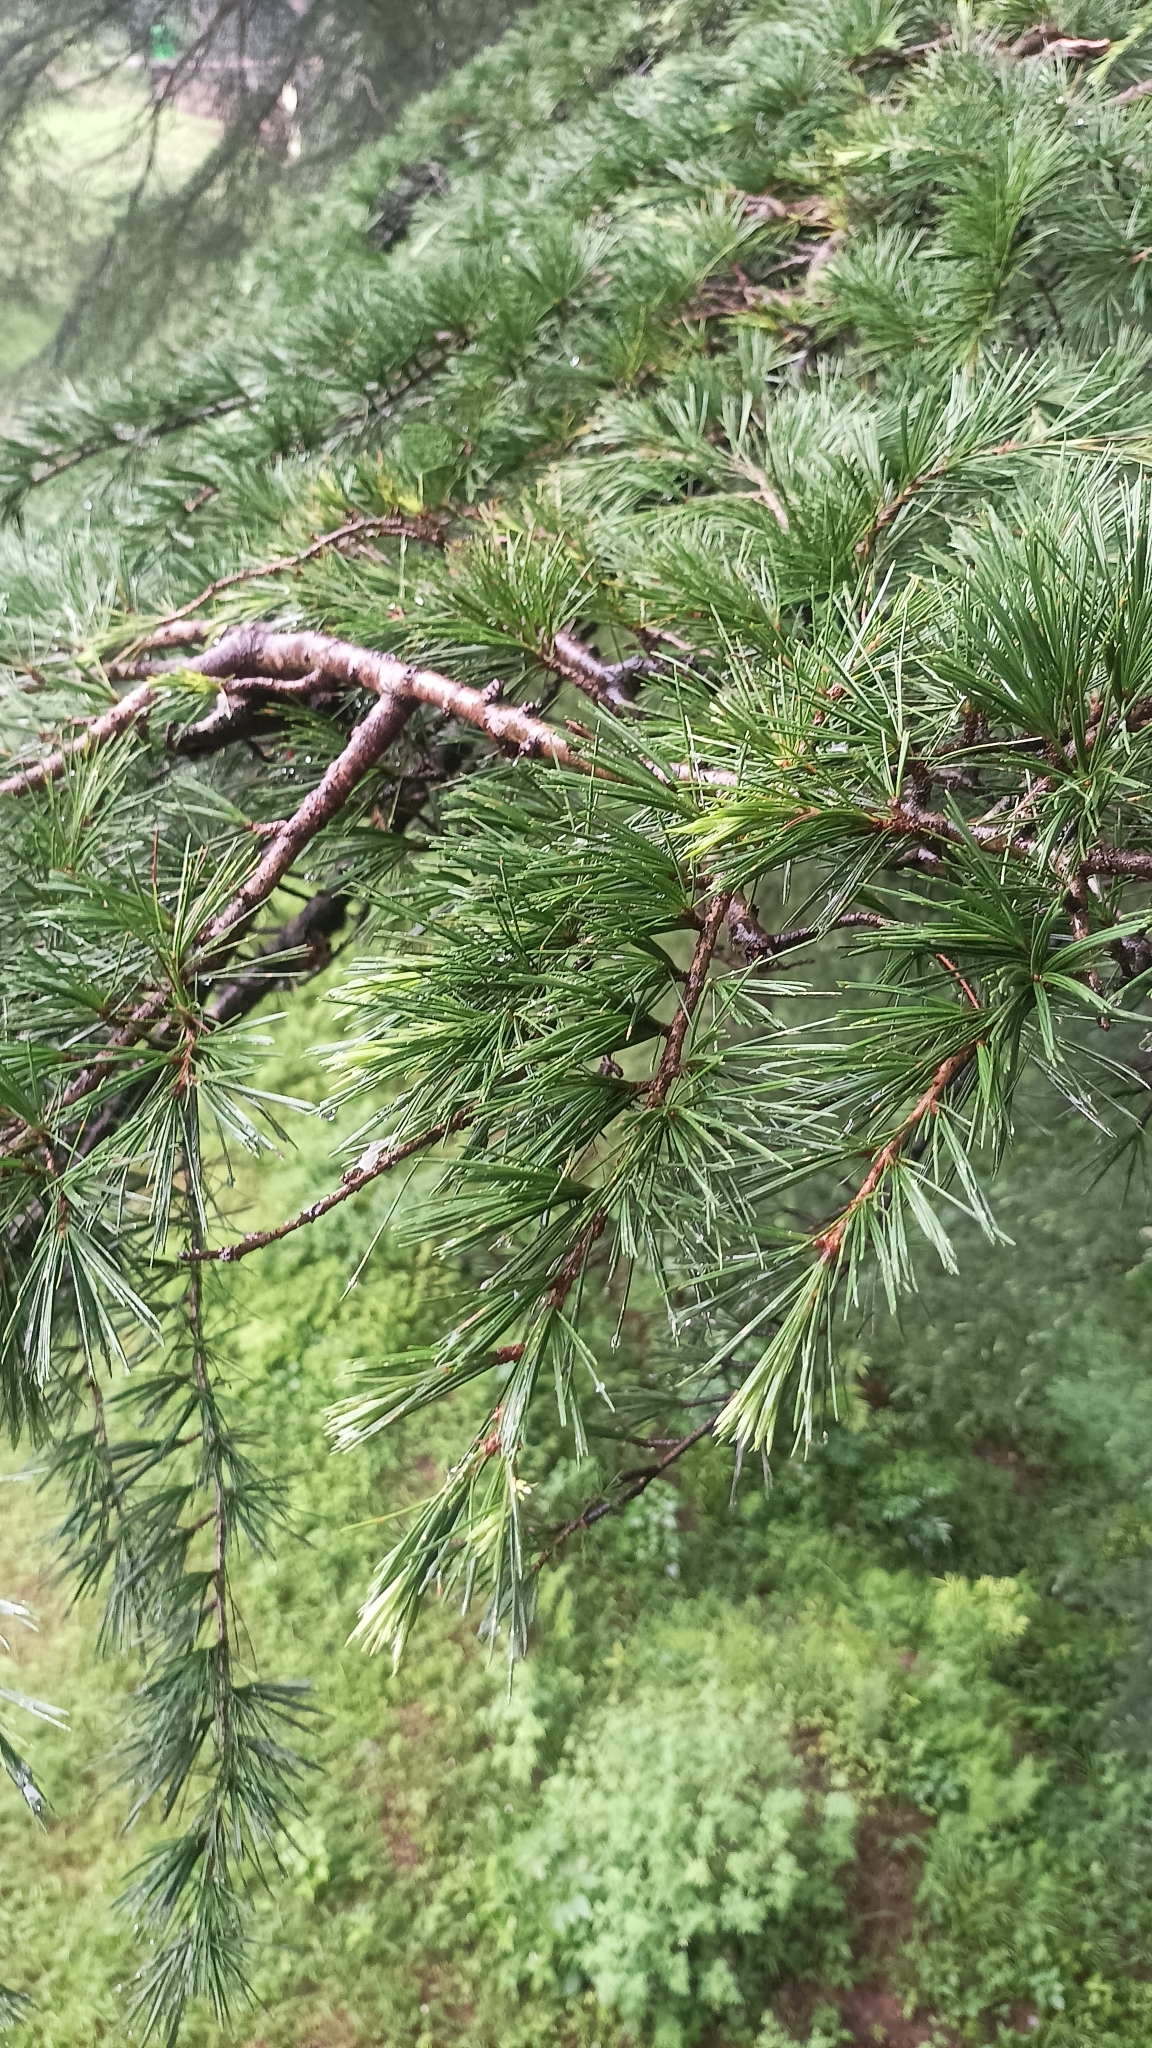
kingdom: Plantae
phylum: Tracheophyta
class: Pinopsida
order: Pinales
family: Pinaceae
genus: Cedrus
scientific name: Cedrus deodara
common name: Deodar
